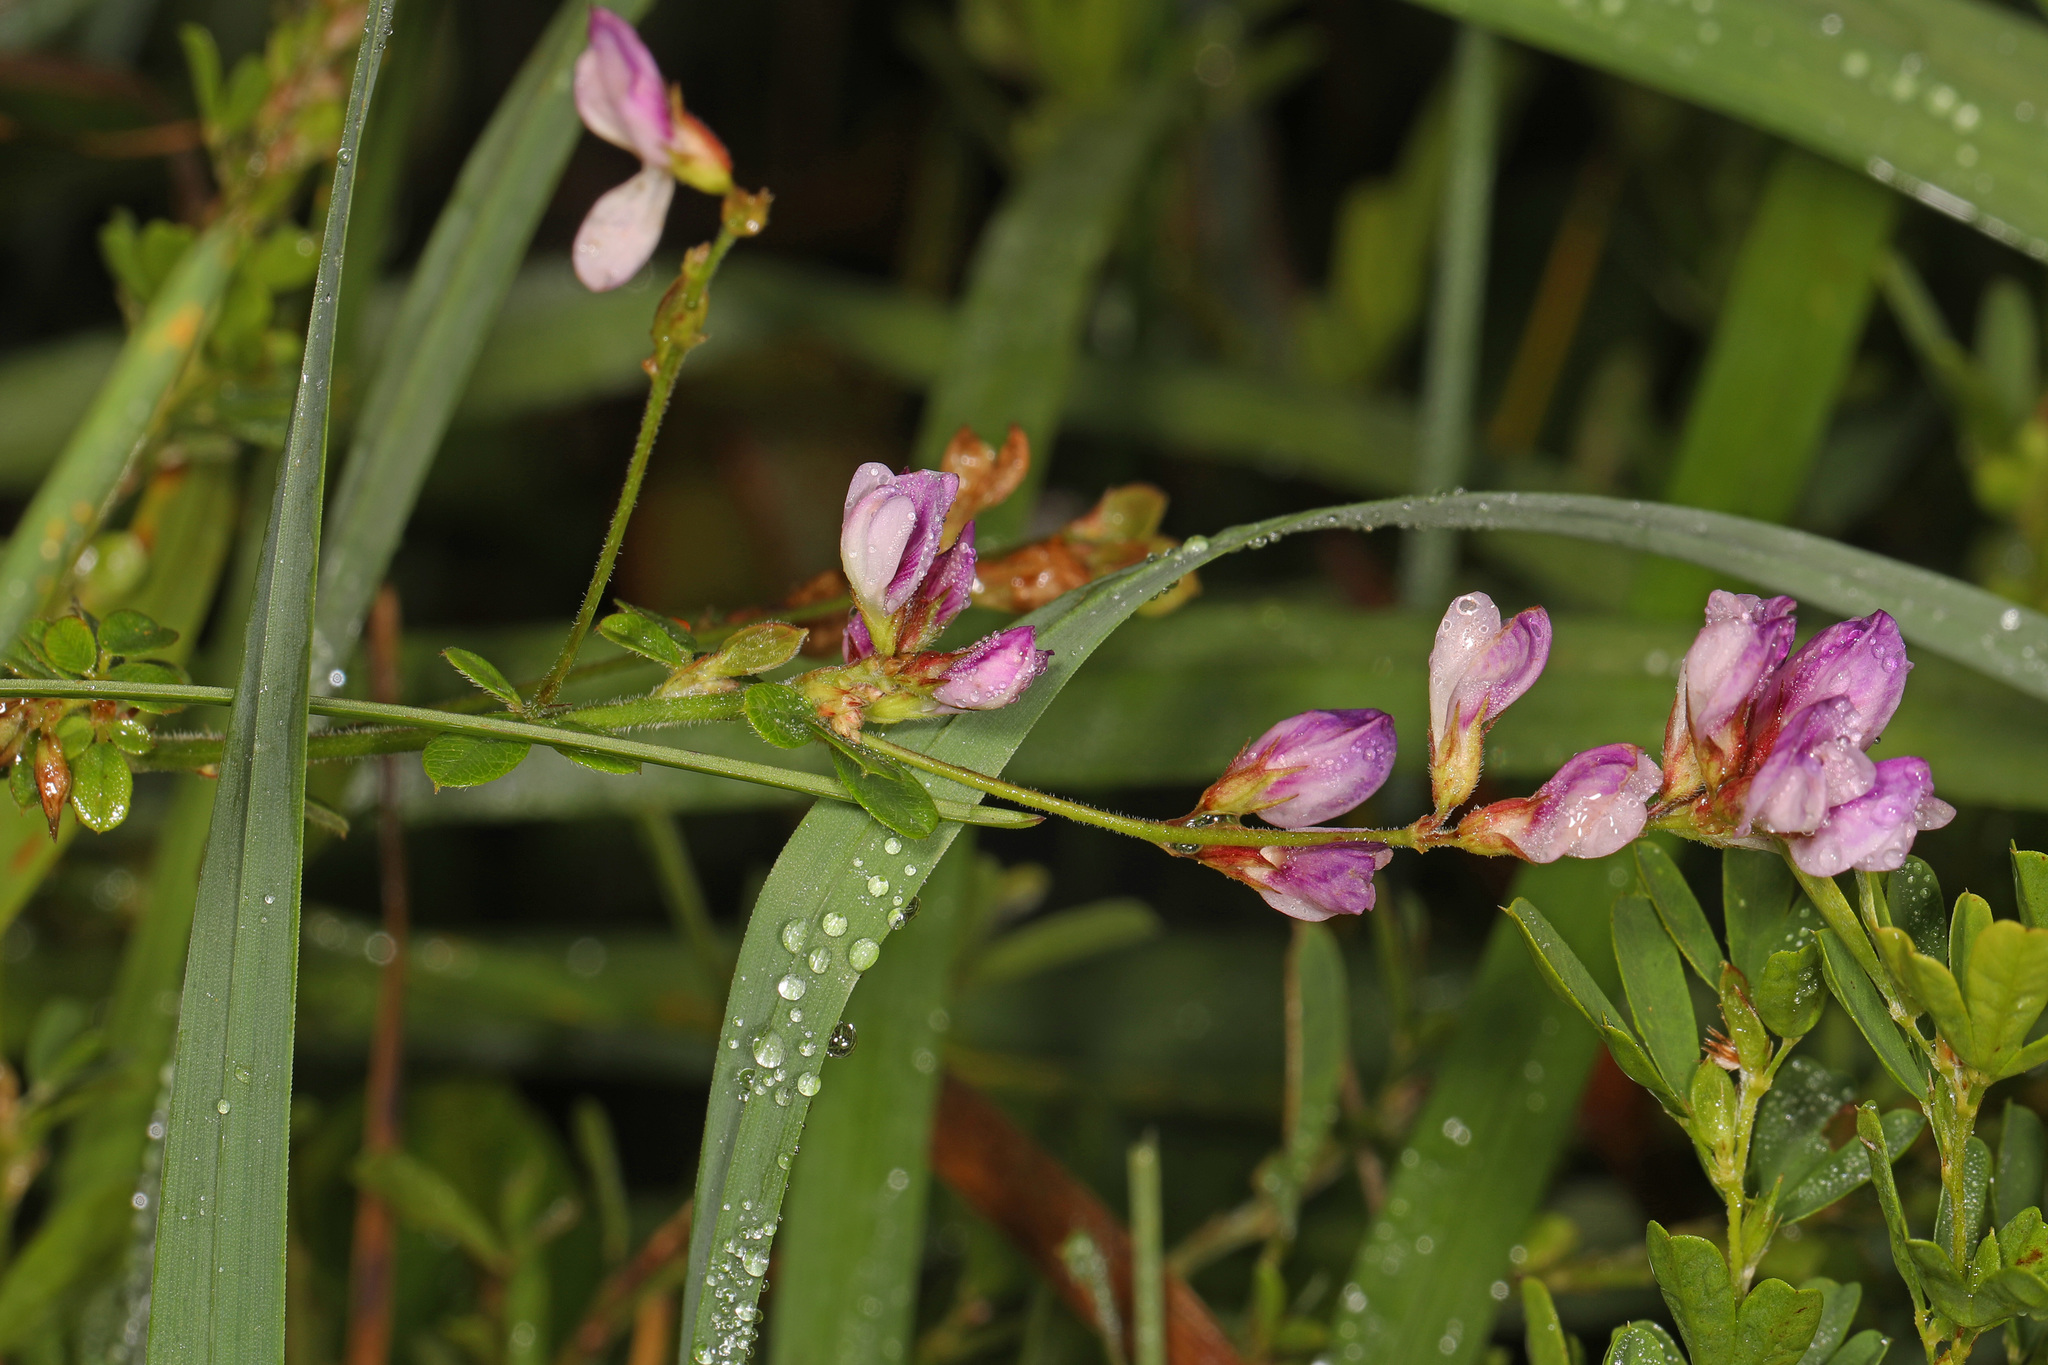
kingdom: Plantae
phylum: Tracheophyta
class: Magnoliopsida
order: Fabales
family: Fabaceae
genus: Lespedeza
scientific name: Lespedeza procumbens
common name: Downy trailing bush-clover
